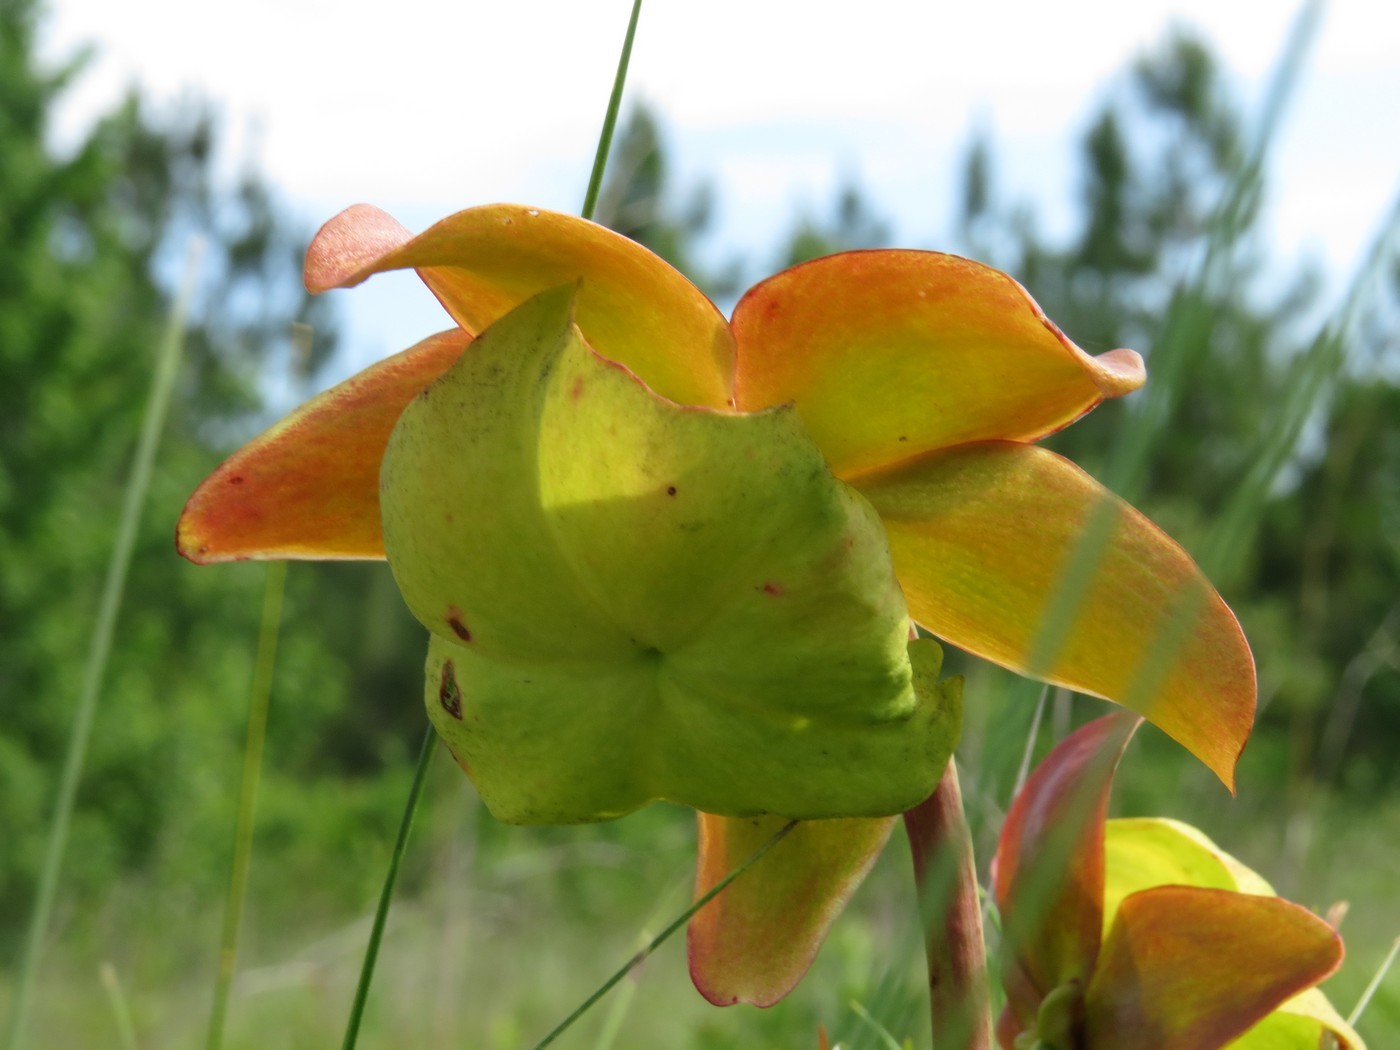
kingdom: Plantae
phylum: Tracheophyta
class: Magnoliopsida
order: Ericales
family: Sarraceniaceae
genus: Sarracenia
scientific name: Sarracenia purpurea
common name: Pitcherplant
